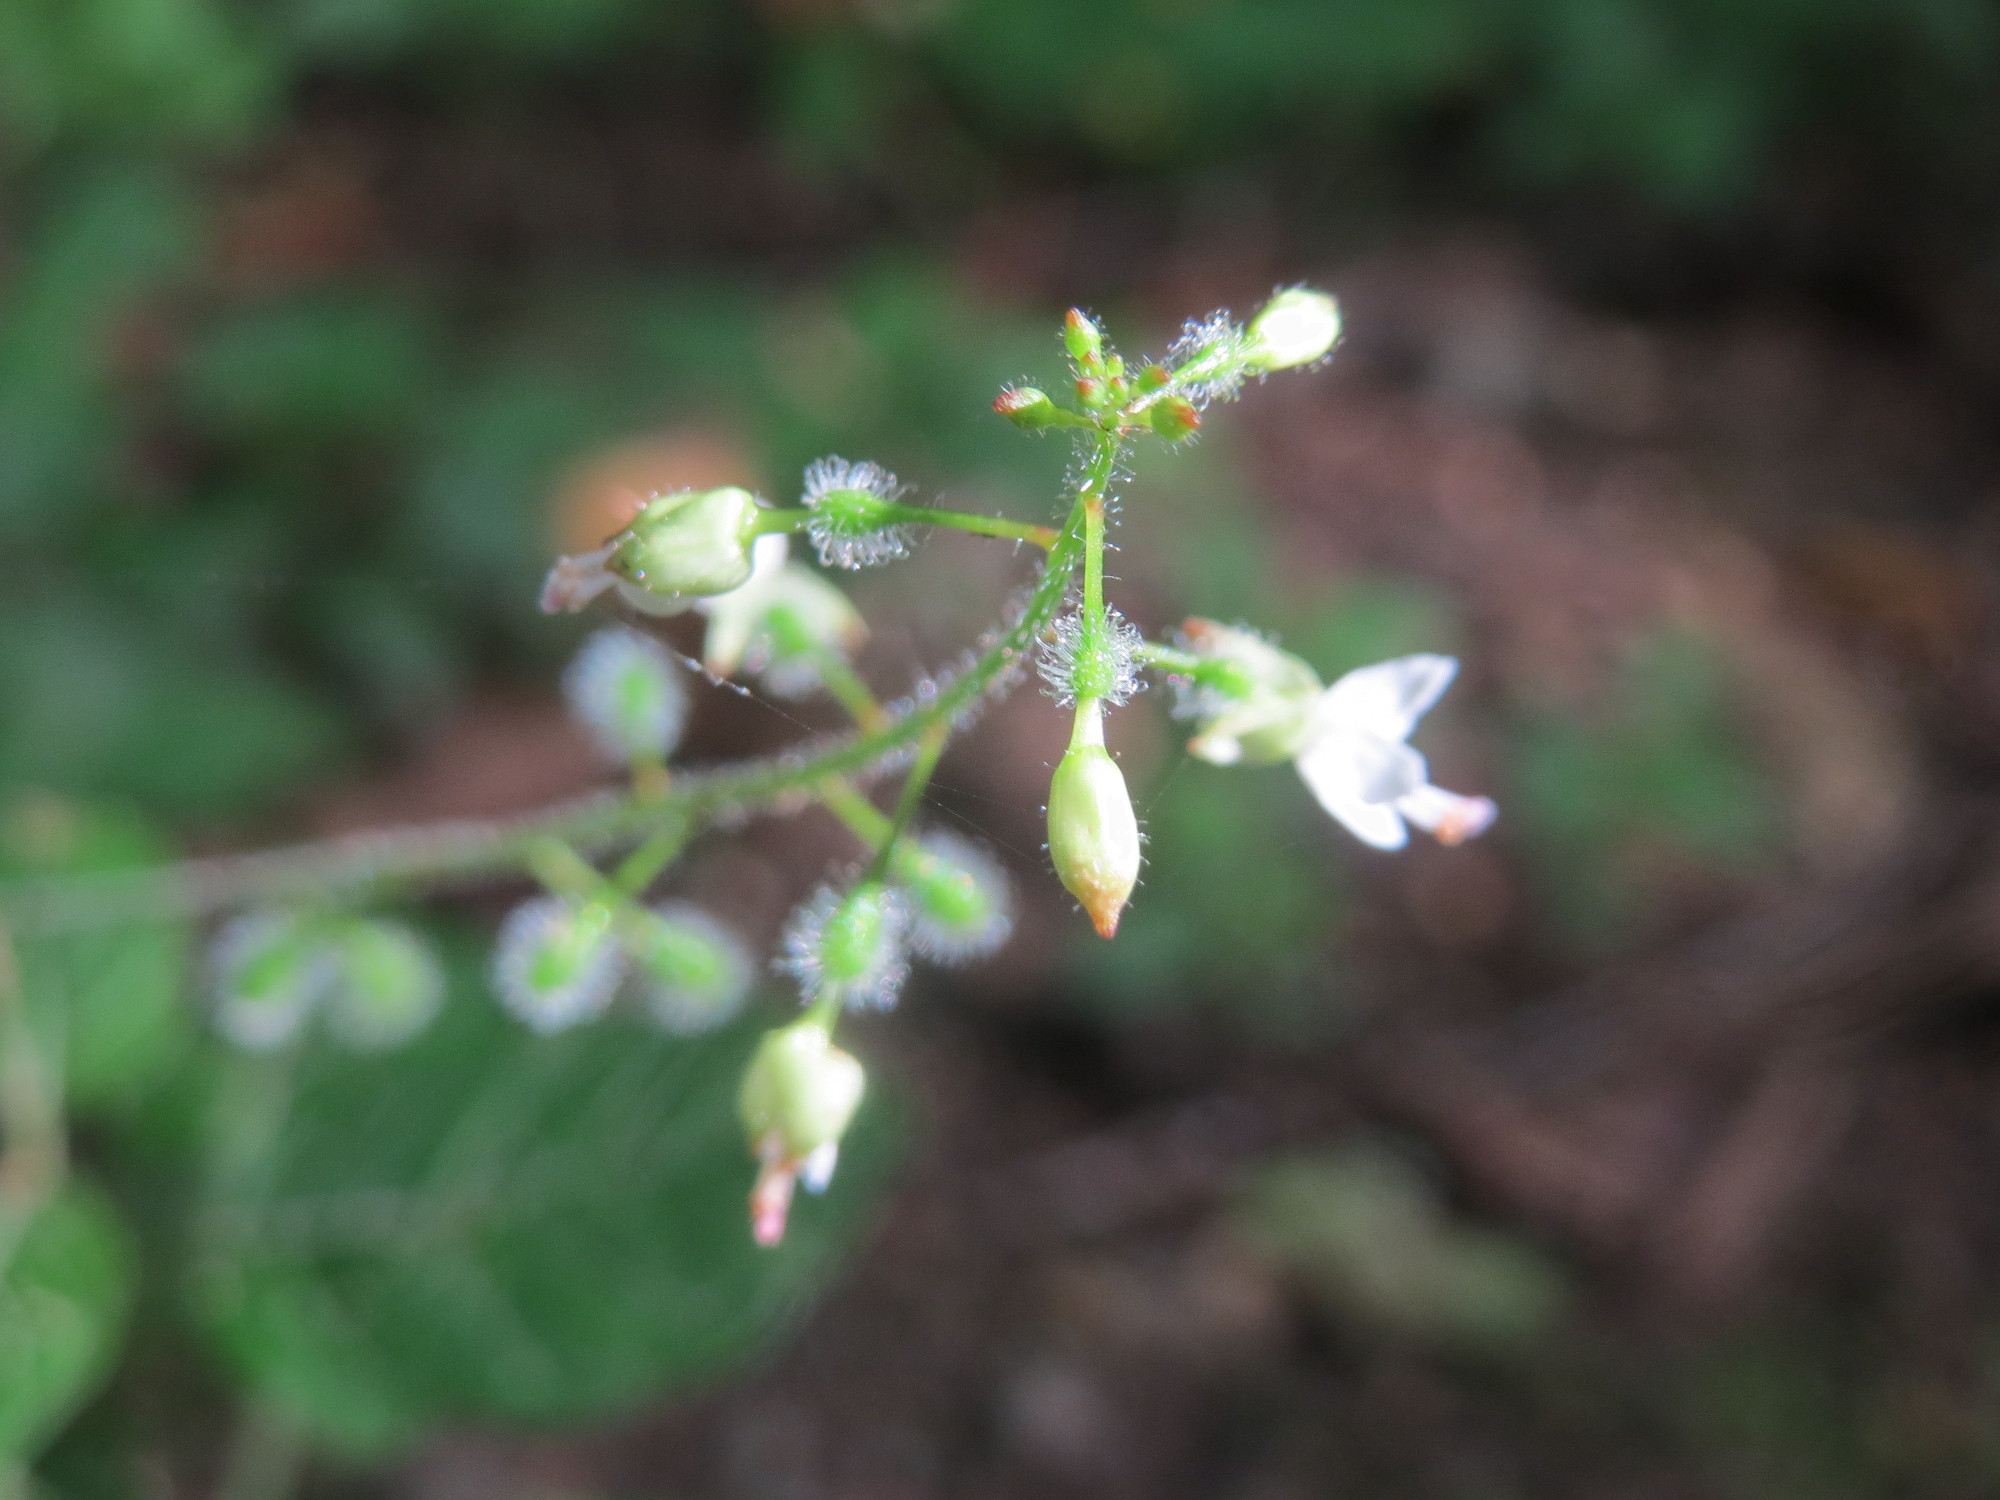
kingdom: Plantae
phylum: Tracheophyta
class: Magnoliopsida
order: Myrtales
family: Onagraceae
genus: Circaea
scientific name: Circaea lutetiana
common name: Enchanter's-nightshade
